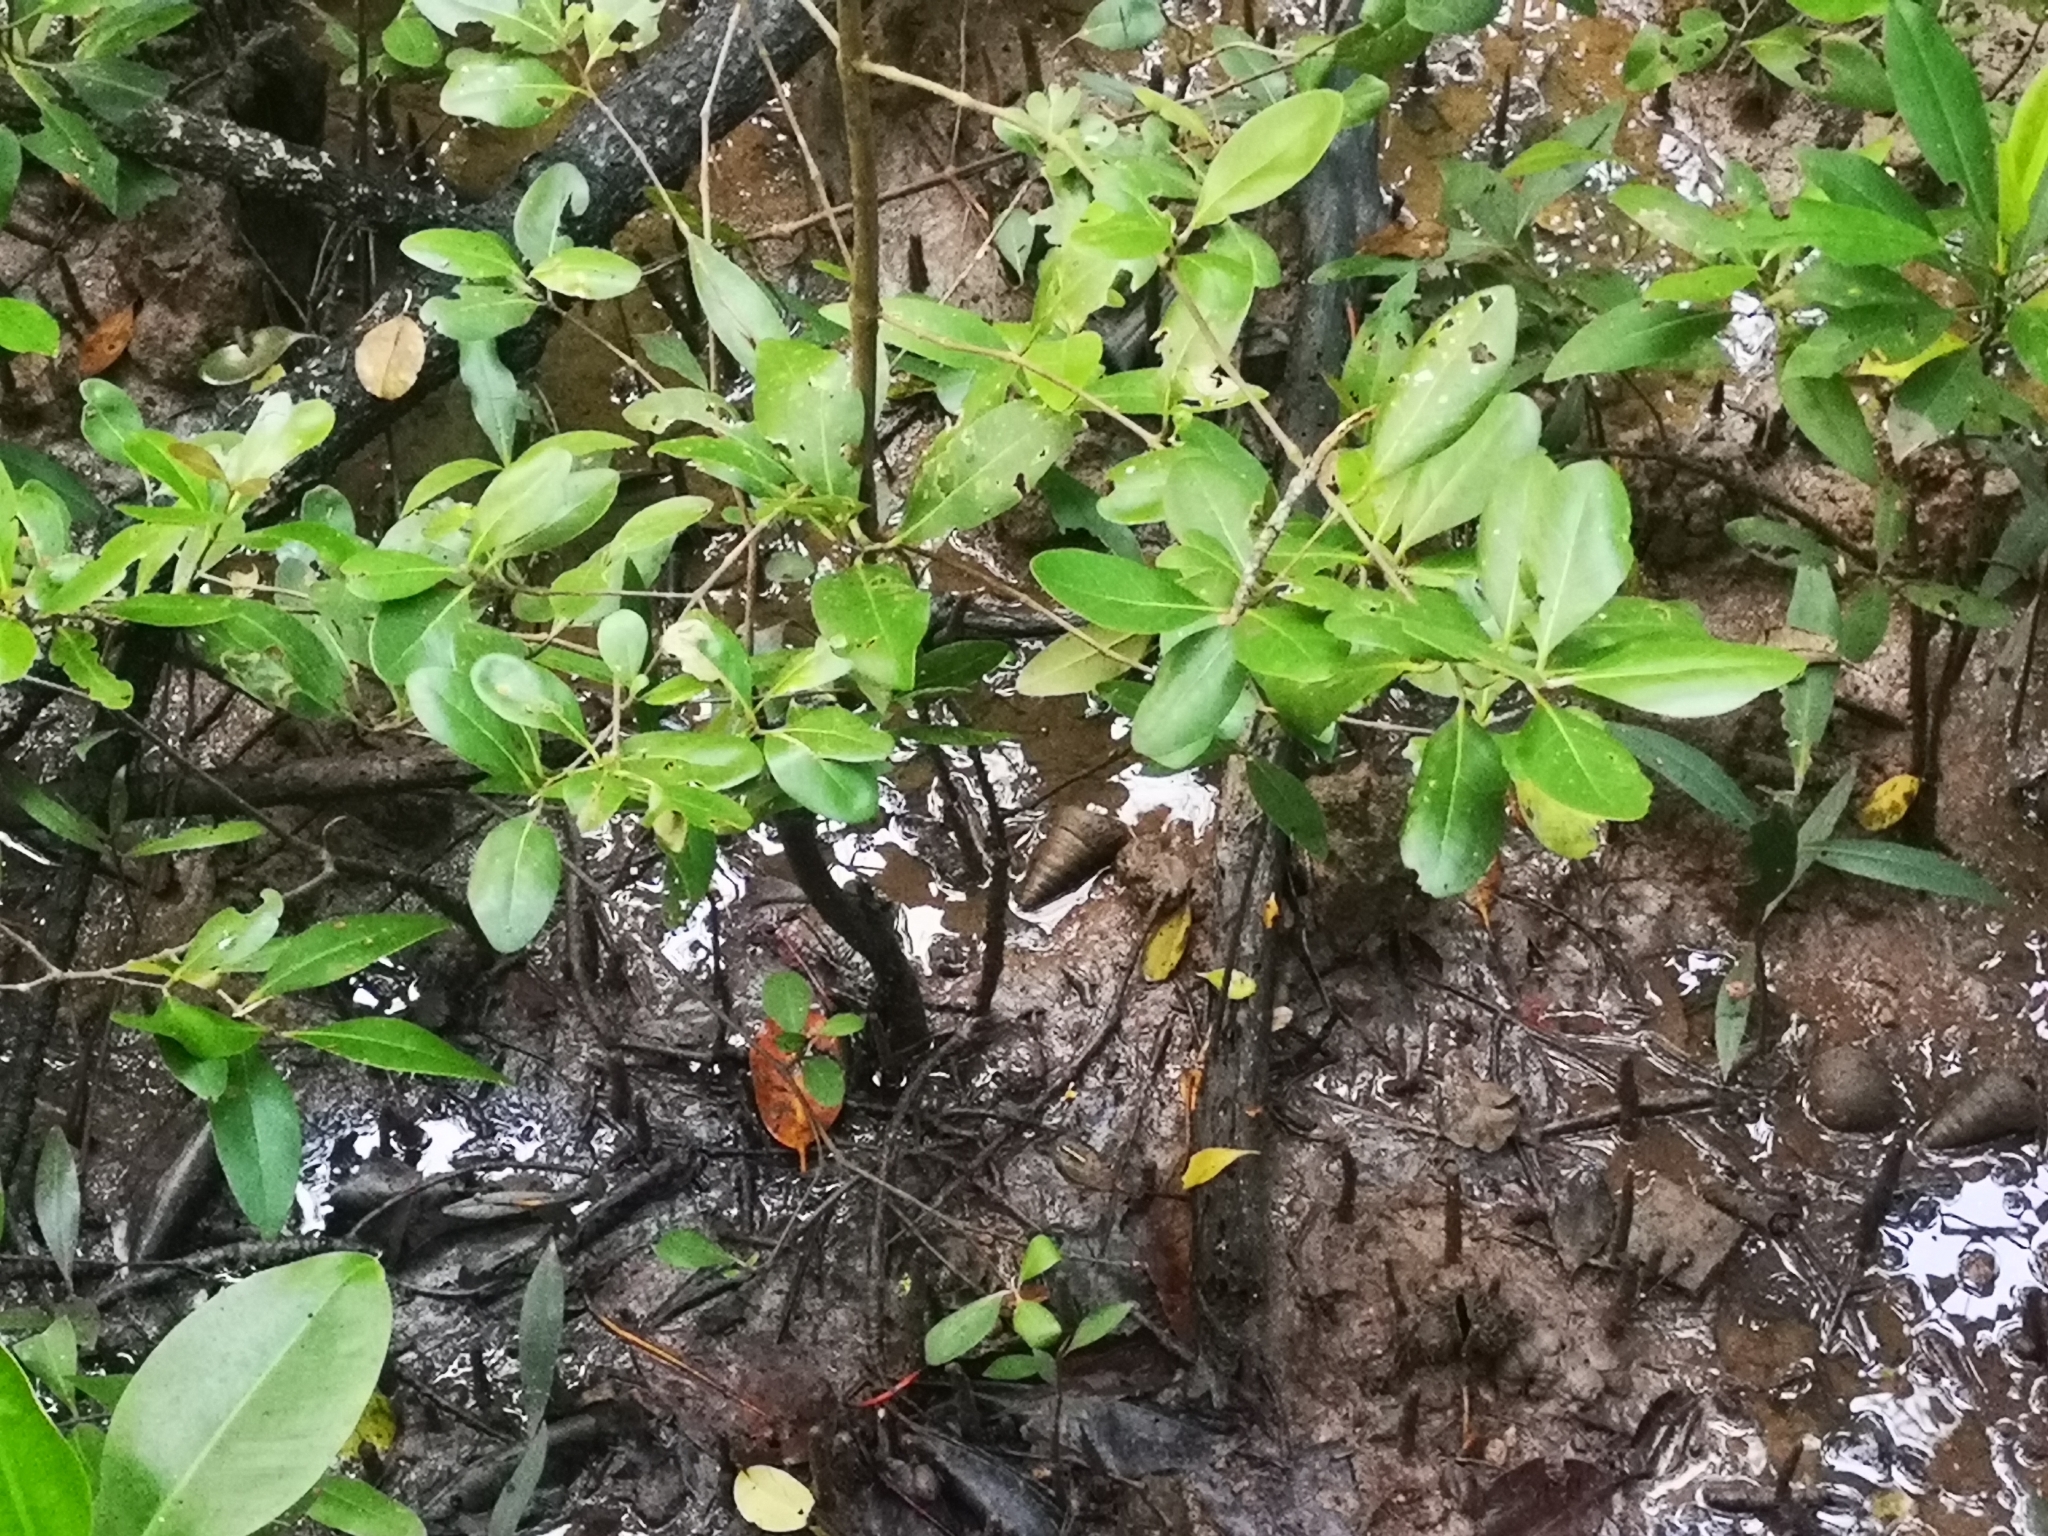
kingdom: Animalia
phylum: Mollusca
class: Gastropoda
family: Potamididae
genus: Telescopium
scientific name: Telescopium telescopium
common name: Telescope creeper
